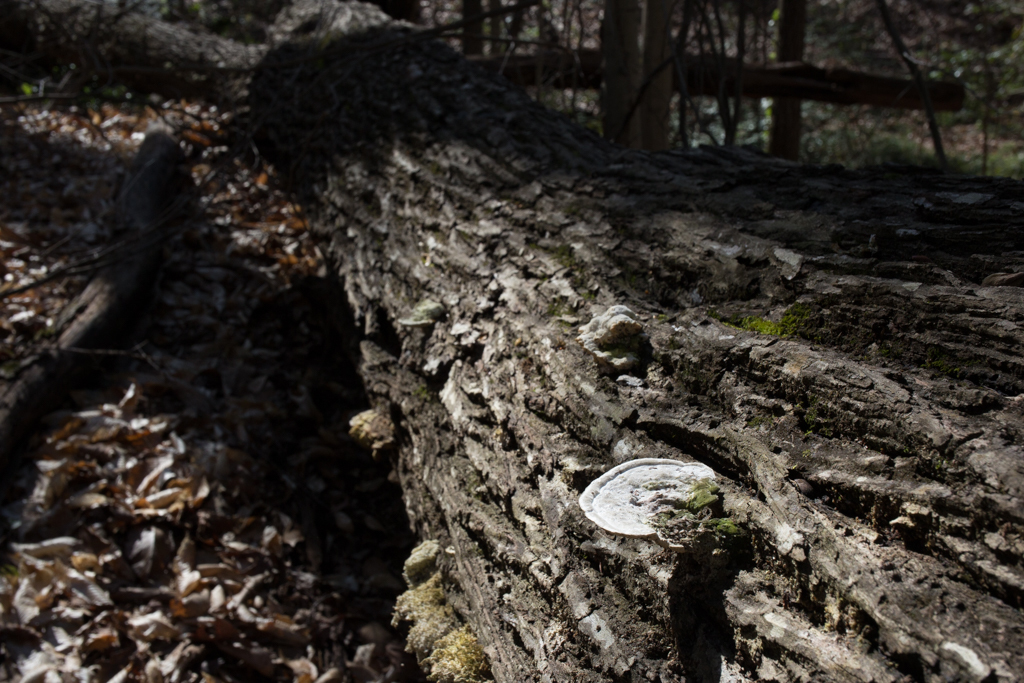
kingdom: Fungi
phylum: Basidiomycota
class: Agaricomycetes
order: Polyporales
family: Polyporaceae
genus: Trametes
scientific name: Trametes gibbosa
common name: Lumpy bracket
